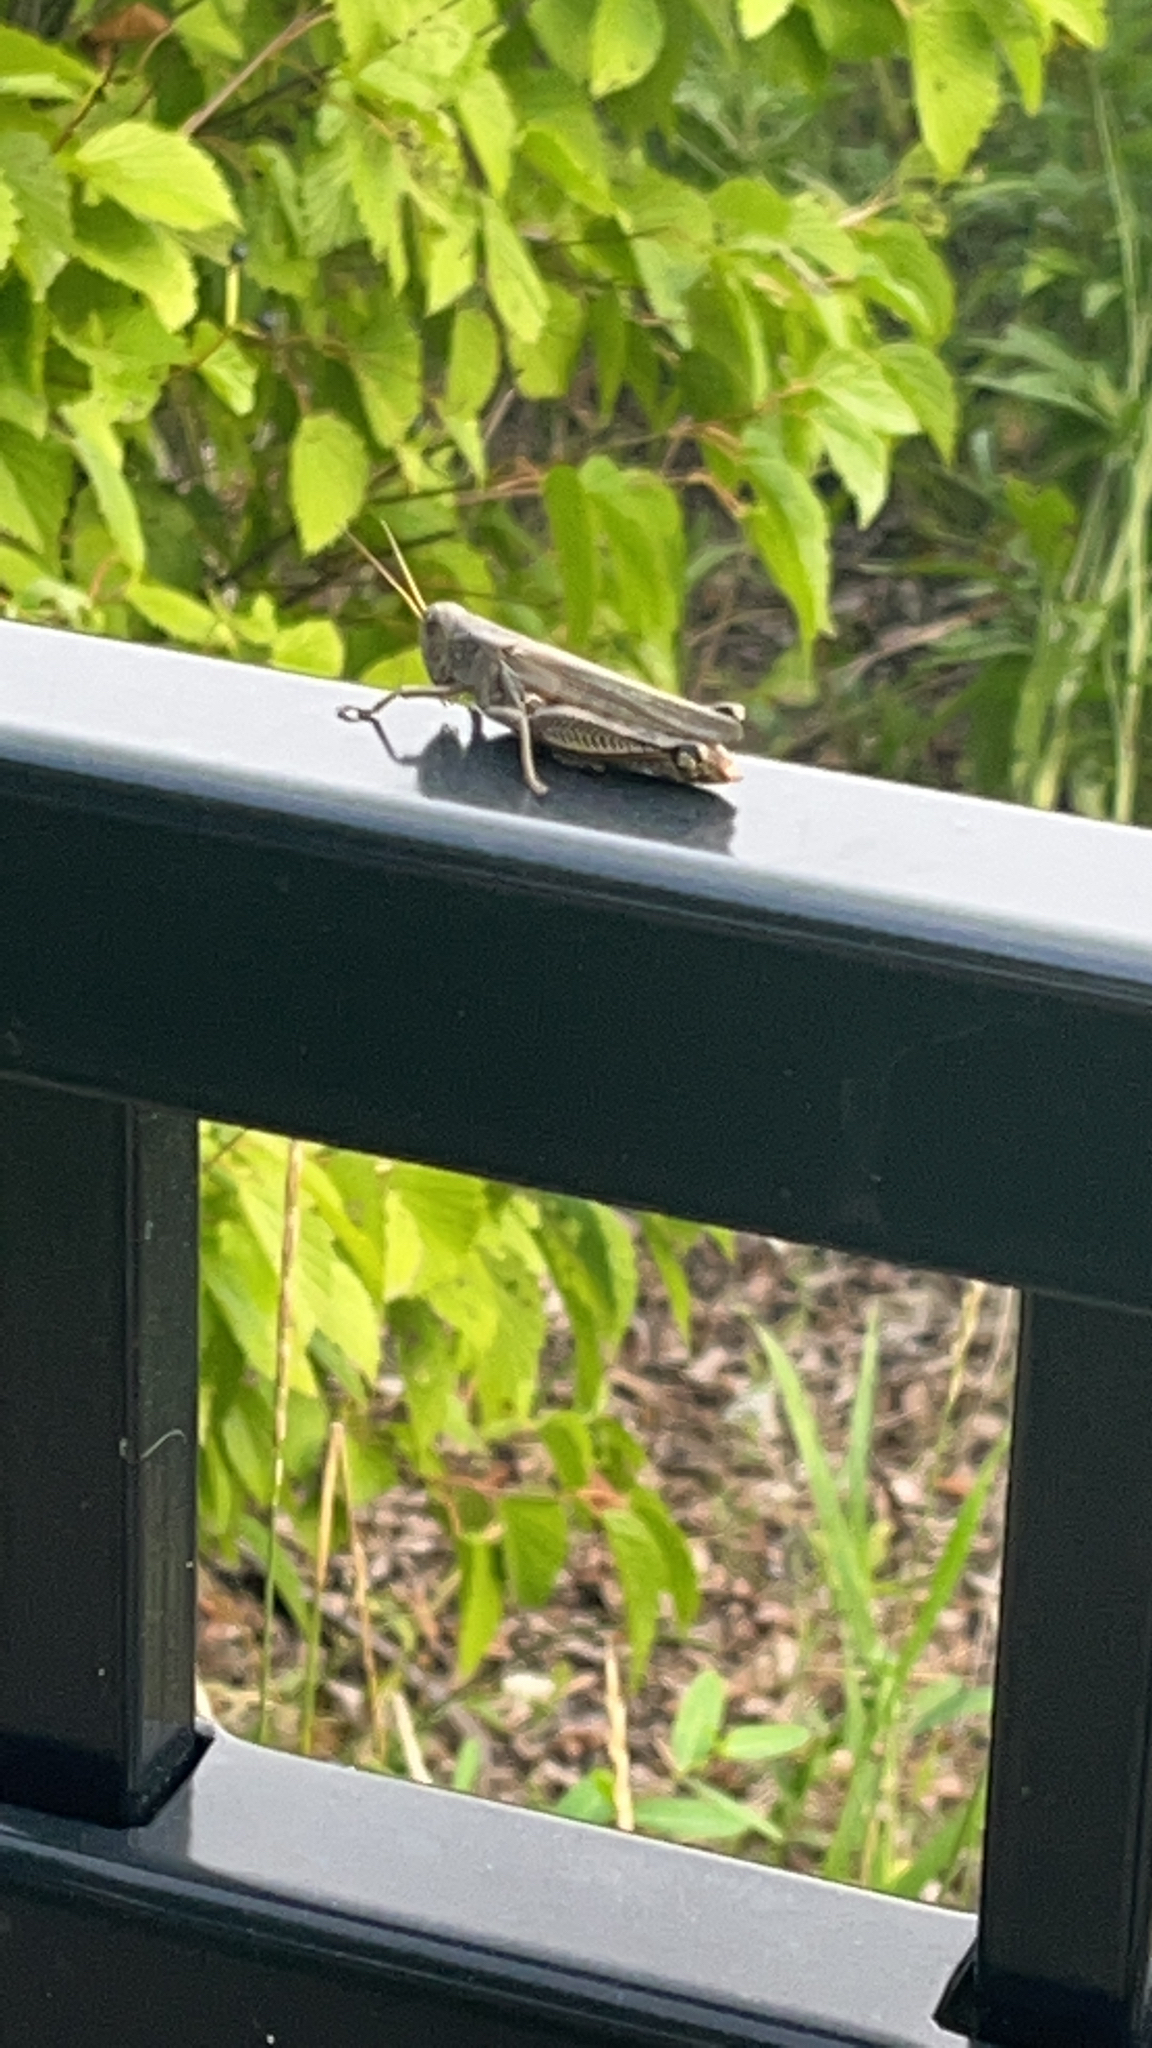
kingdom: Animalia
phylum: Arthropoda
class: Insecta
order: Orthoptera
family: Acrididae
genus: Melanoplus
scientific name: Melanoplus differentialis
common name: Differential grasshopper
